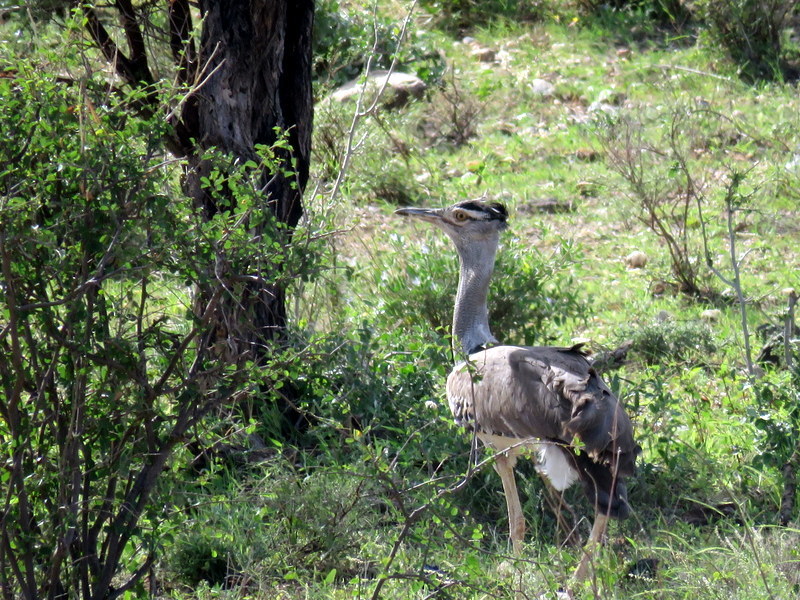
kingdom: Animalia
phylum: Chordata
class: Aves
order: Otidiformes
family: Otididae
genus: Ardeotis
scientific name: Ardeotis kori
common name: Kori bustard
